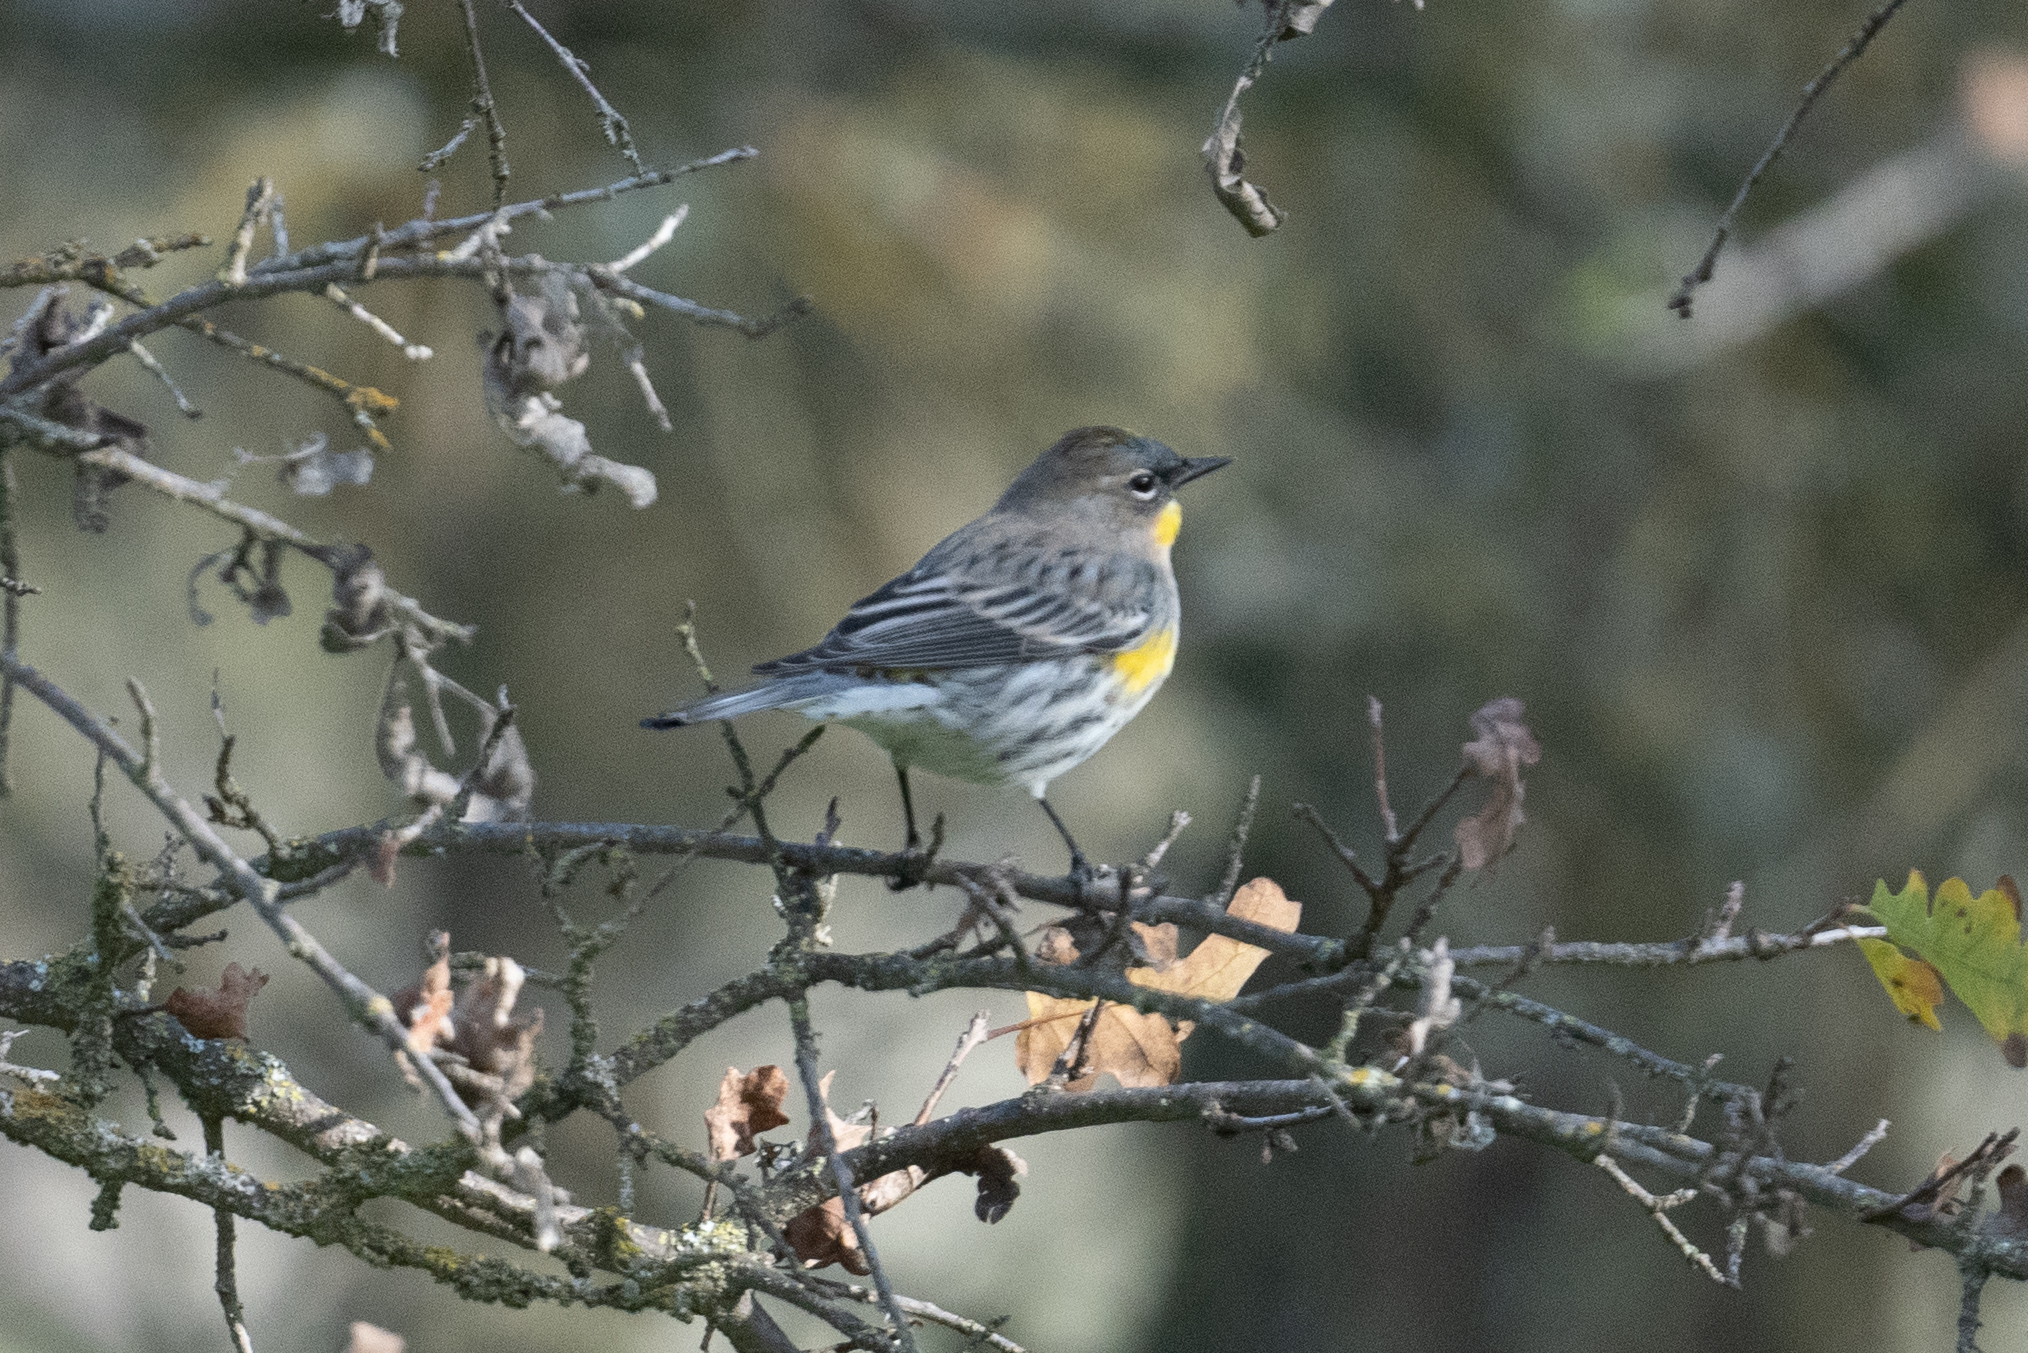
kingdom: Animalia
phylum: Chordata
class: Aves
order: Passeriformes
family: Parulidae
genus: Setophaga
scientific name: Setophaga coronata
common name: Myrtle warbler
